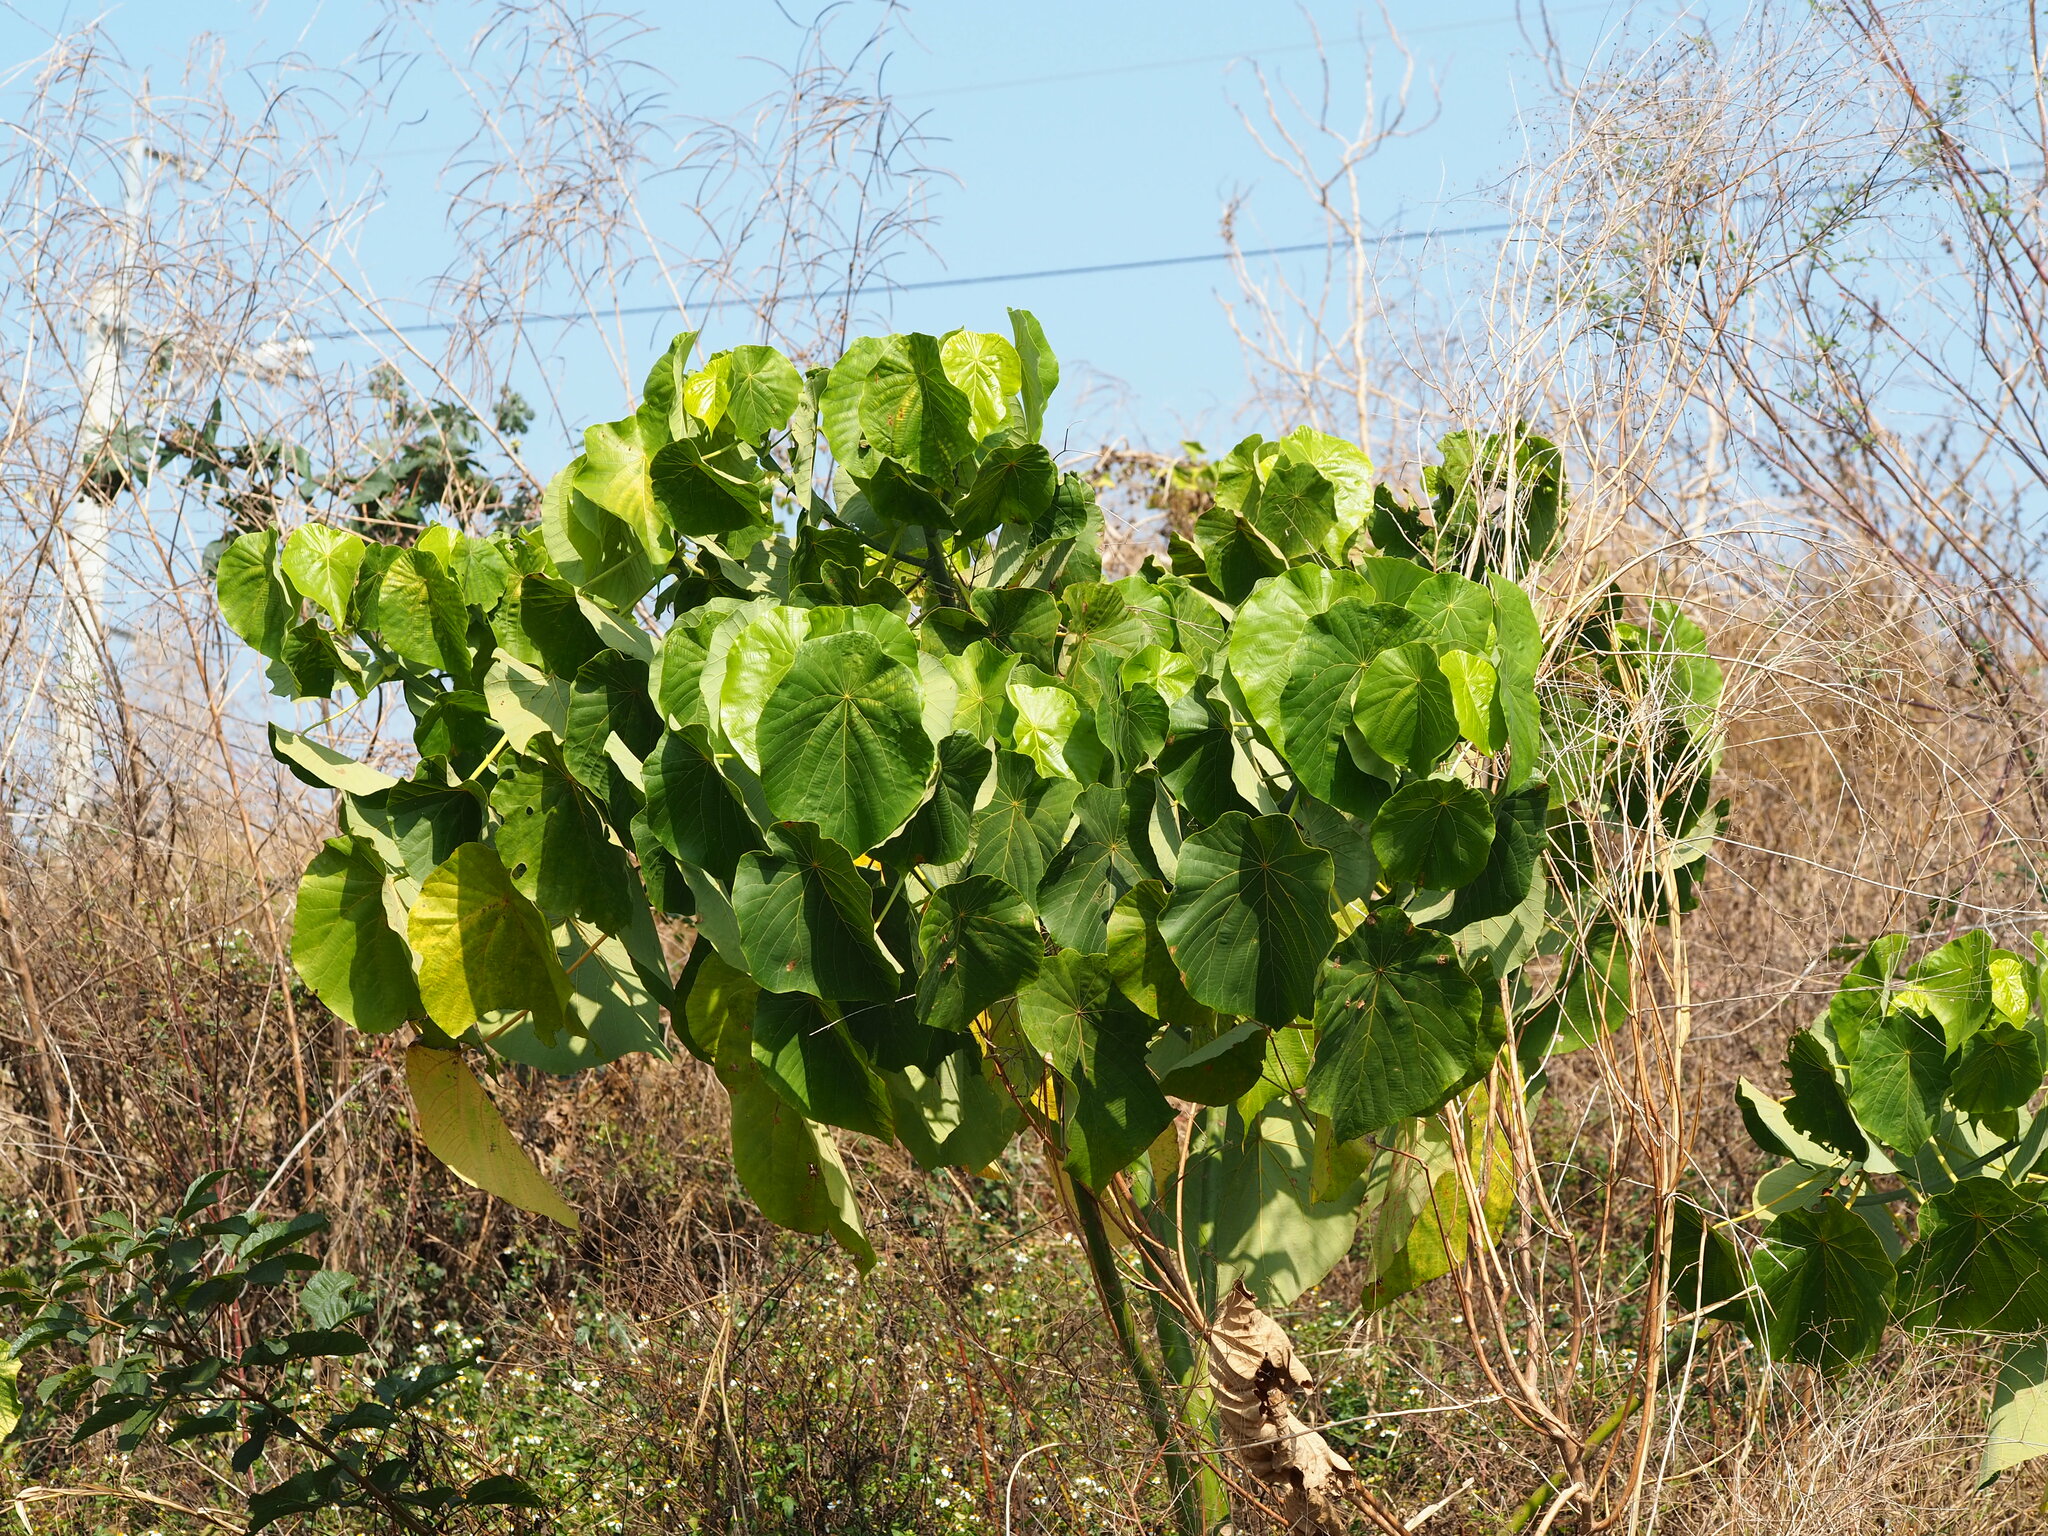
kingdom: Plantae
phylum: Tracheophyta
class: Magnoliopsida
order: Malpighiales
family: Euphorbiaceae
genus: Macaranga
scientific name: Macaranga tanarius
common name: Parasol leaf tree
